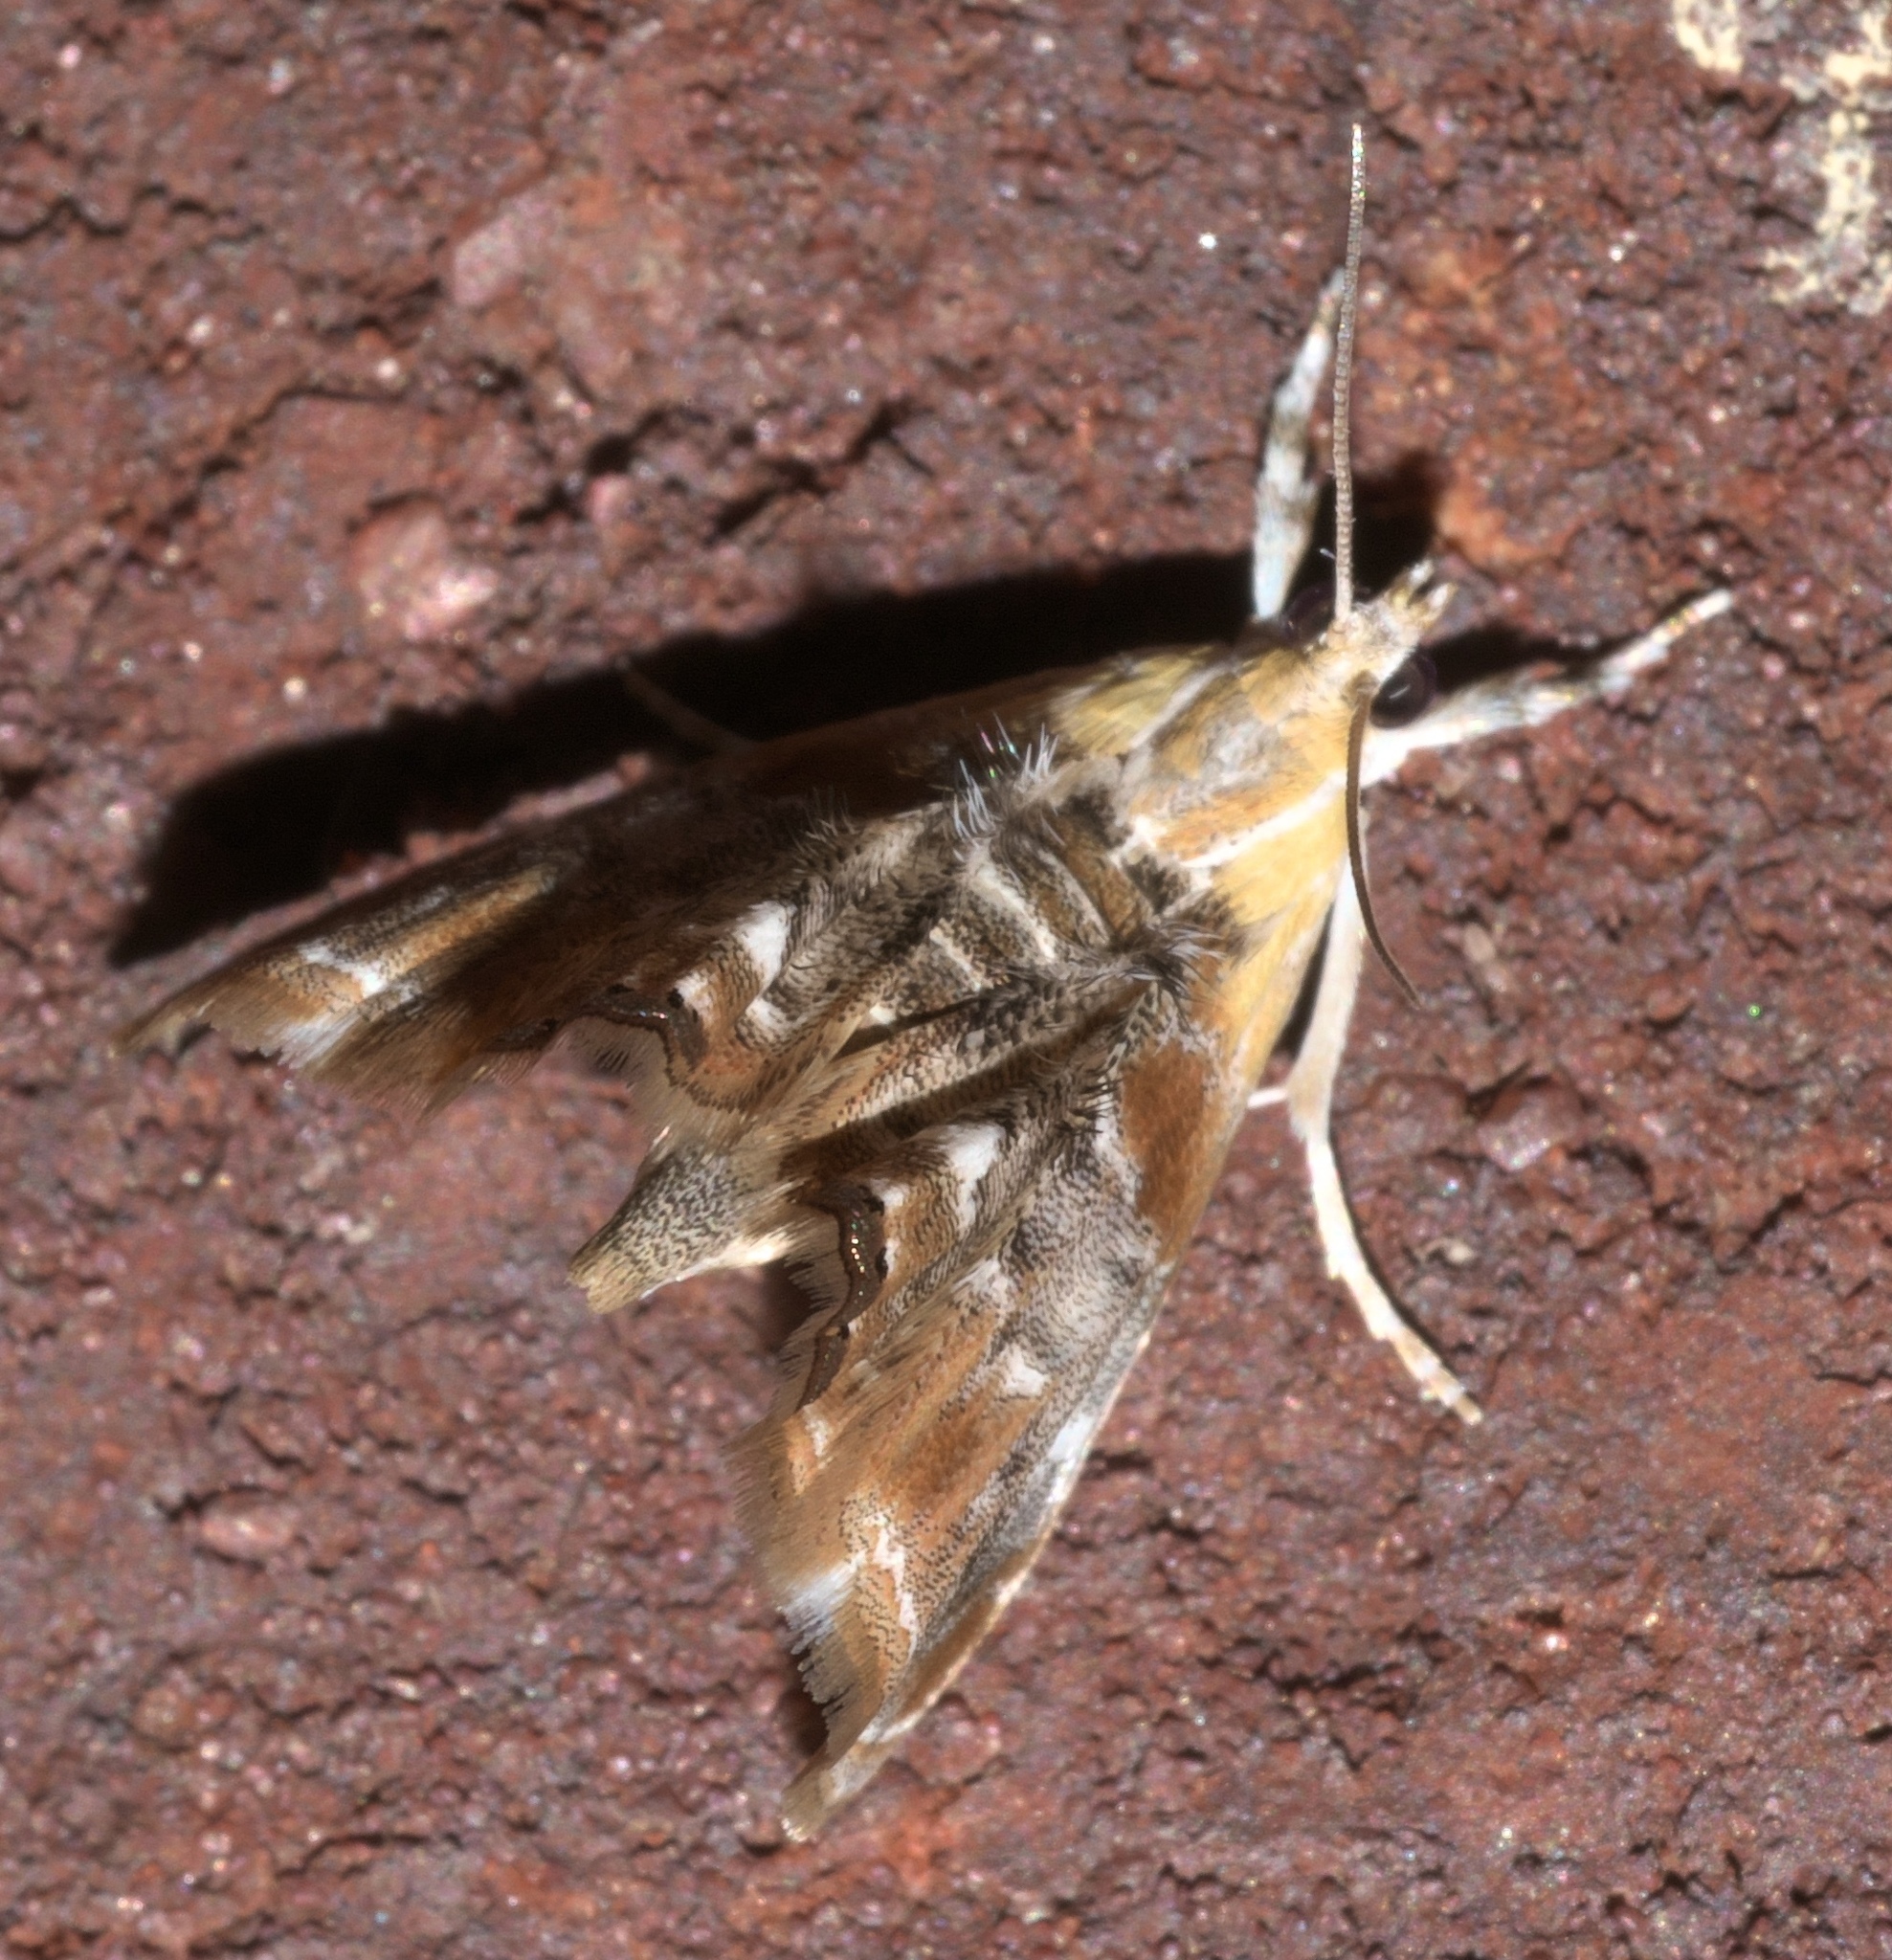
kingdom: Animalia
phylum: Arthropoda
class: Insecta
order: Lepidoptera
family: Crambidae
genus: Dicymolomia
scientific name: Dicymolomia julianalis
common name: Julia's dicymolomia moth
